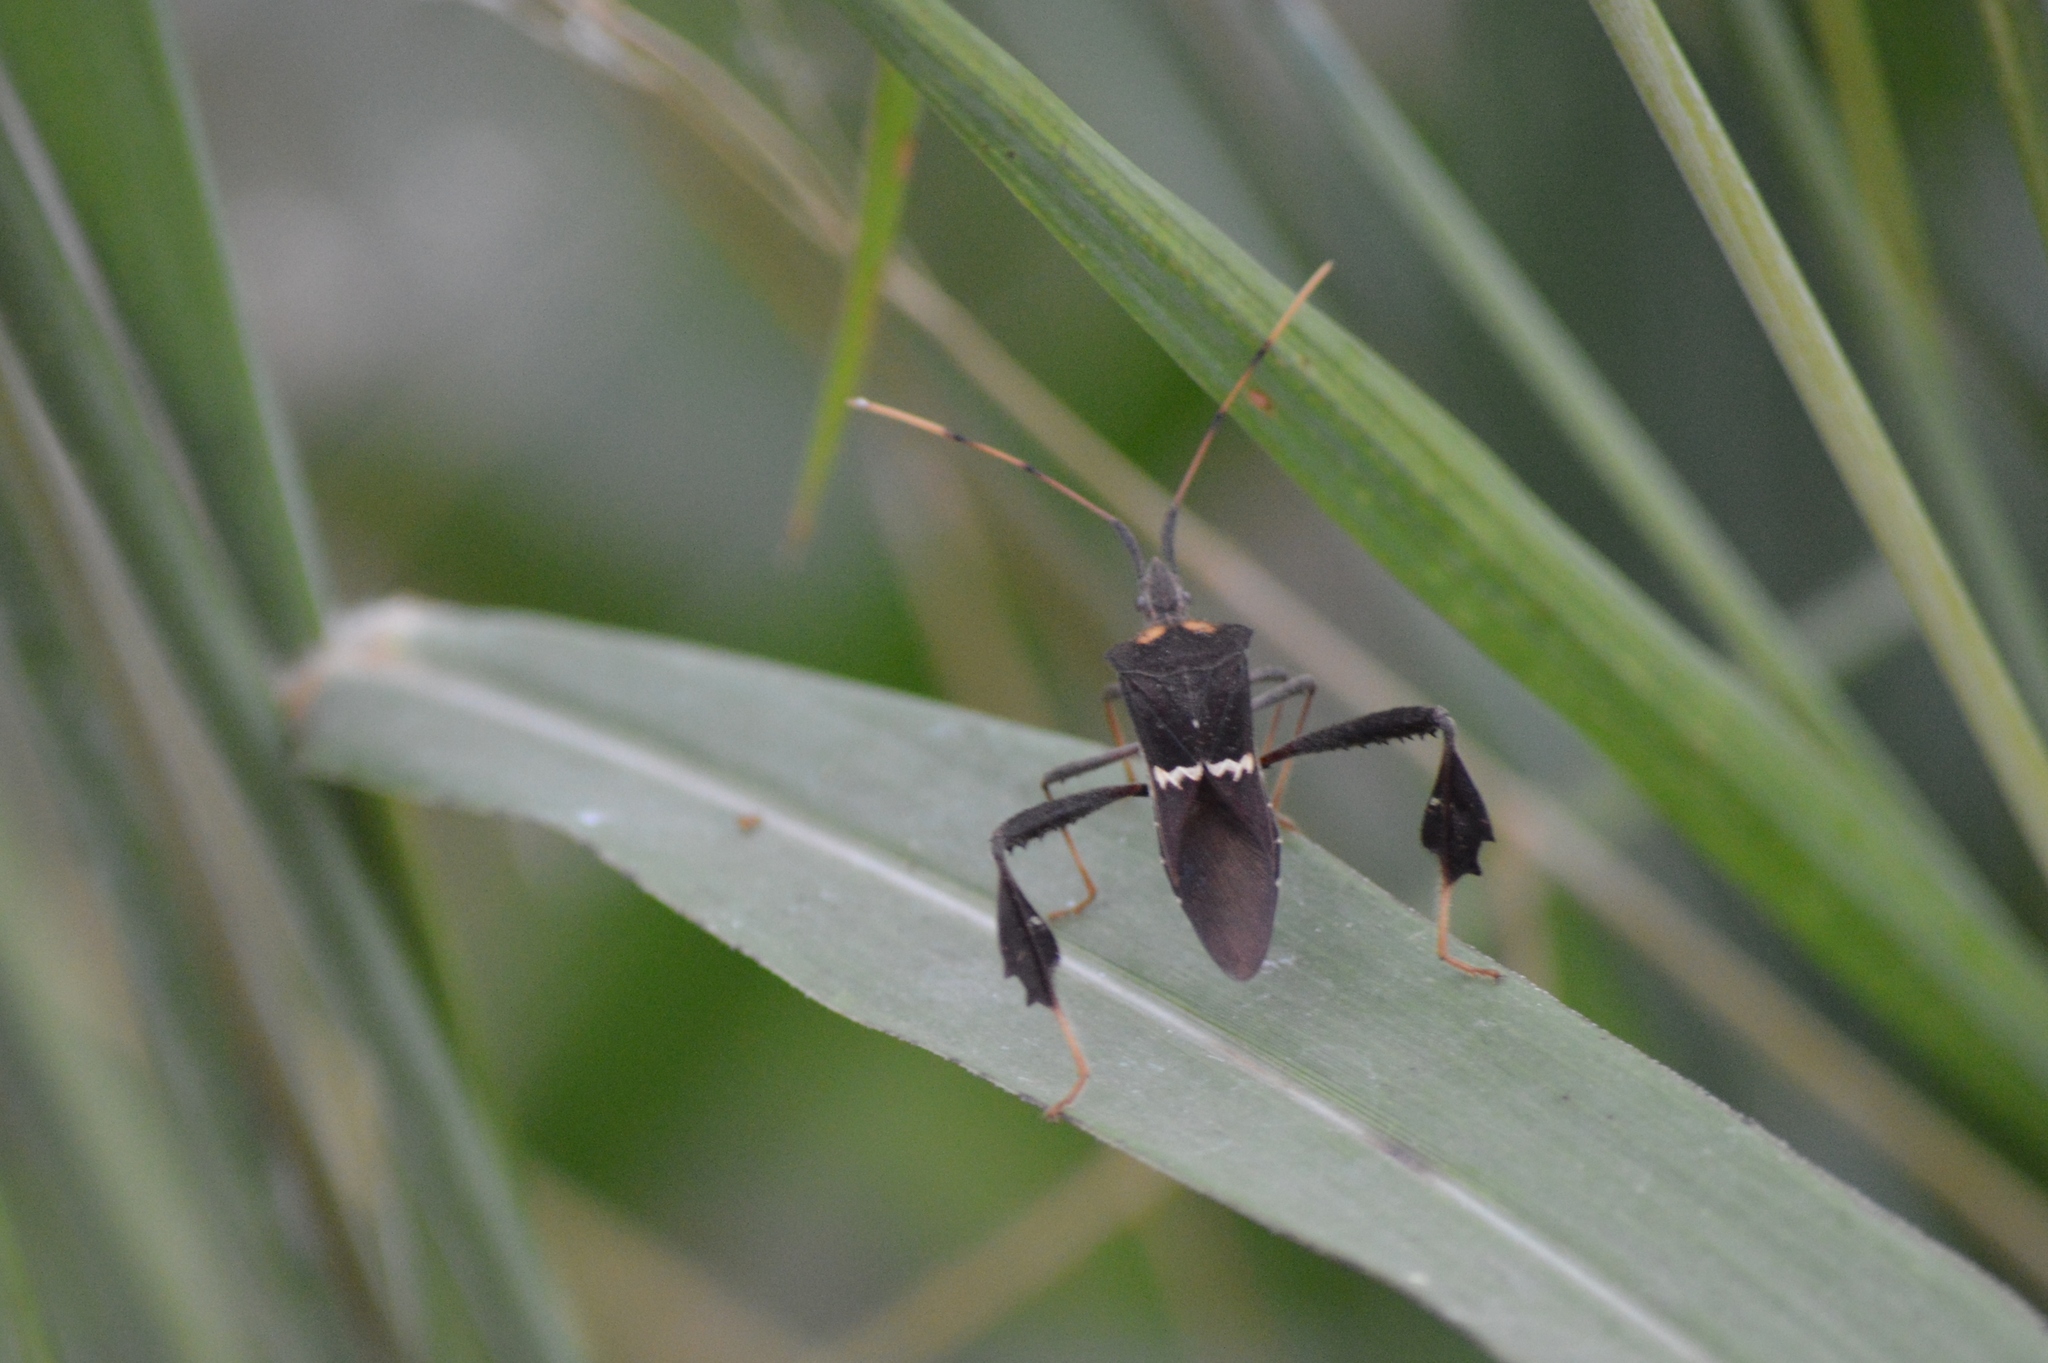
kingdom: Animalia
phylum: Arthropoda
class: Insecta
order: Hemiptera
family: Coreidae
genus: Leptoglossus
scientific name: Leptoglossus zonatus
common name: Large-legged bug
